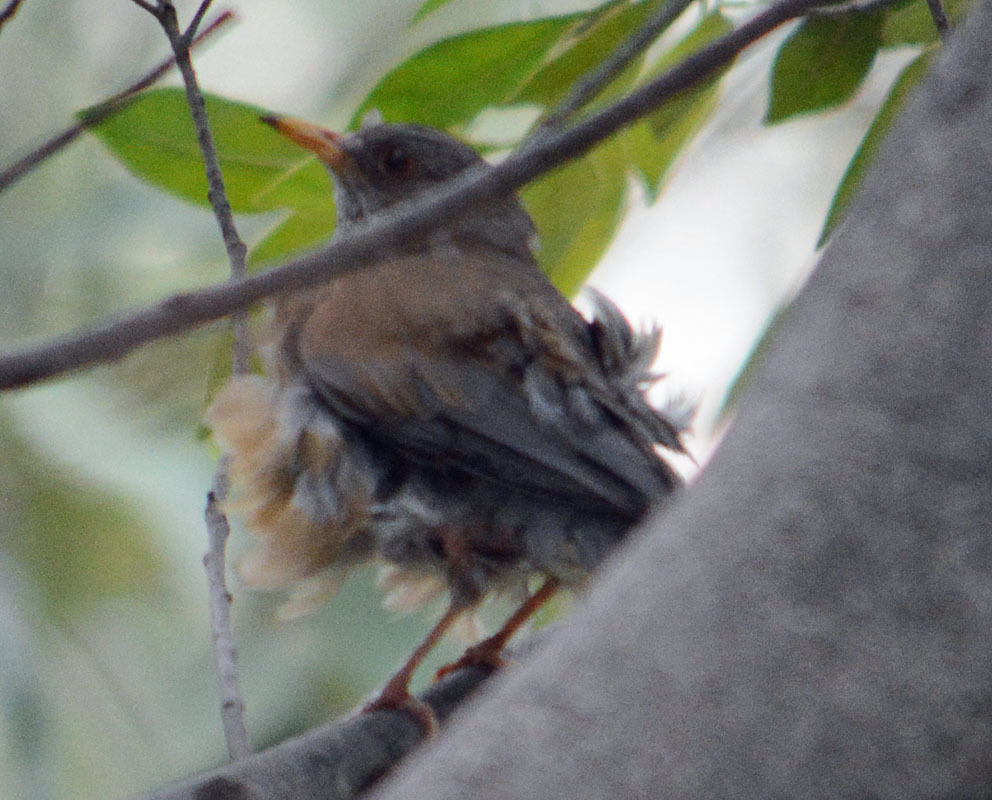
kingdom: Animalia
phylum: Chordata
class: Aves
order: Passeriformes
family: Turdidae
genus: Turdus
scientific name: Turdus rufopalliatus
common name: Rufous-backed robin
